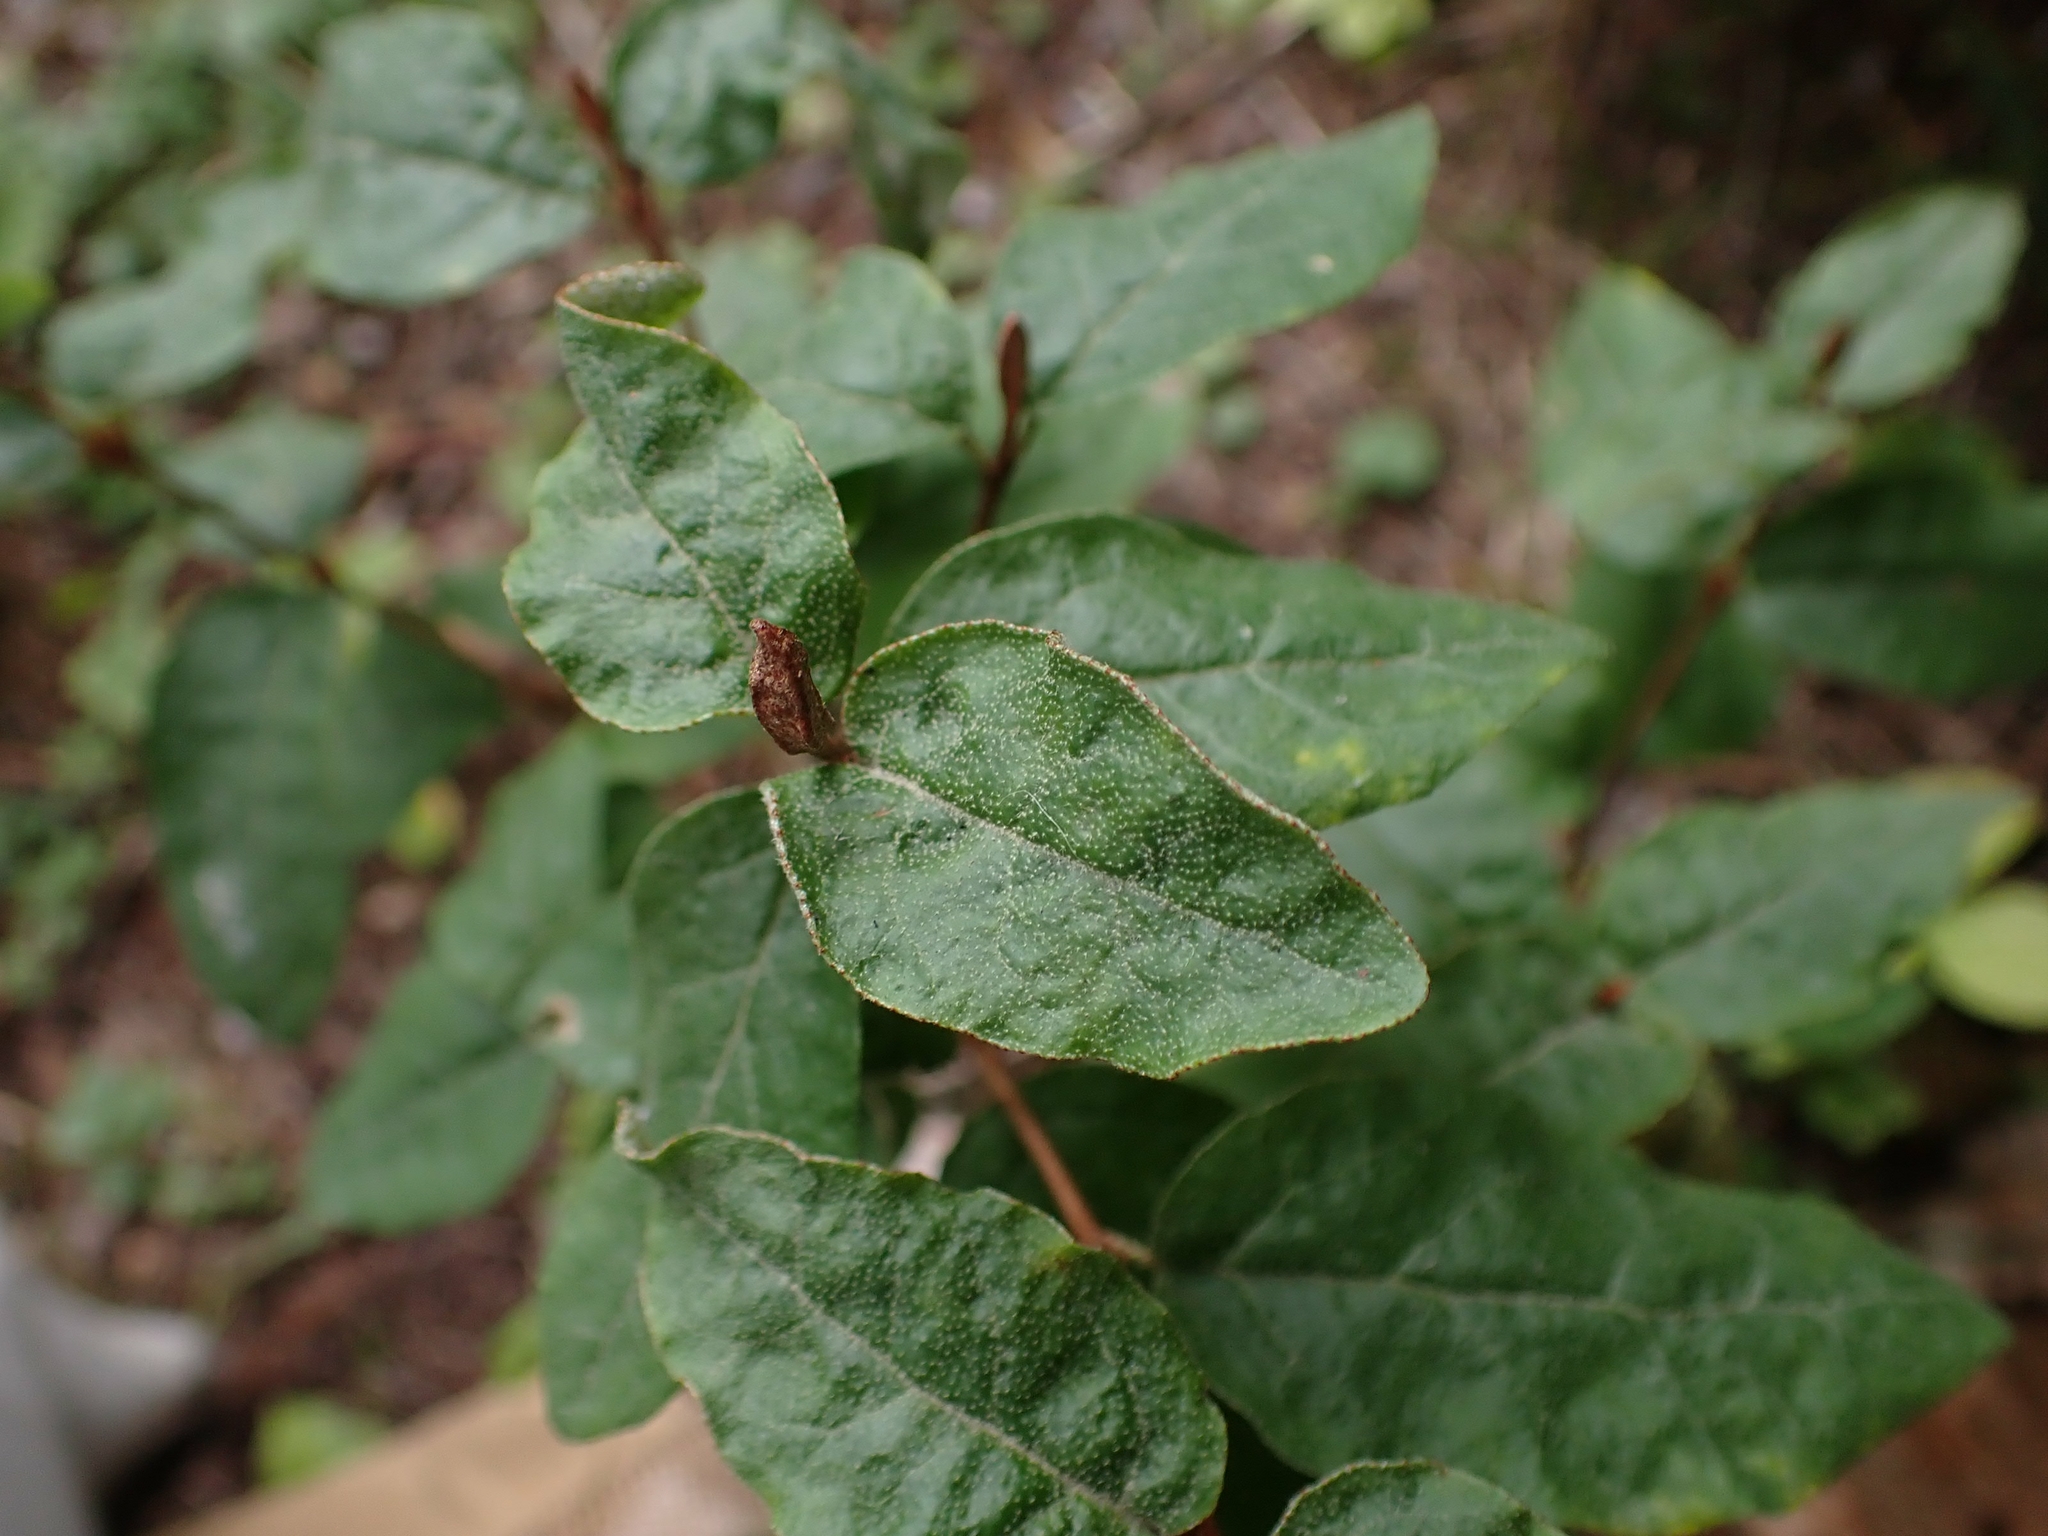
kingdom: Plantae
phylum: Tracheophyta
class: Magnoliopsida
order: Rosales
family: Elaeagnaceae
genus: Shepherdia
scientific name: Shepherdia canadensis
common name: Soapberry
